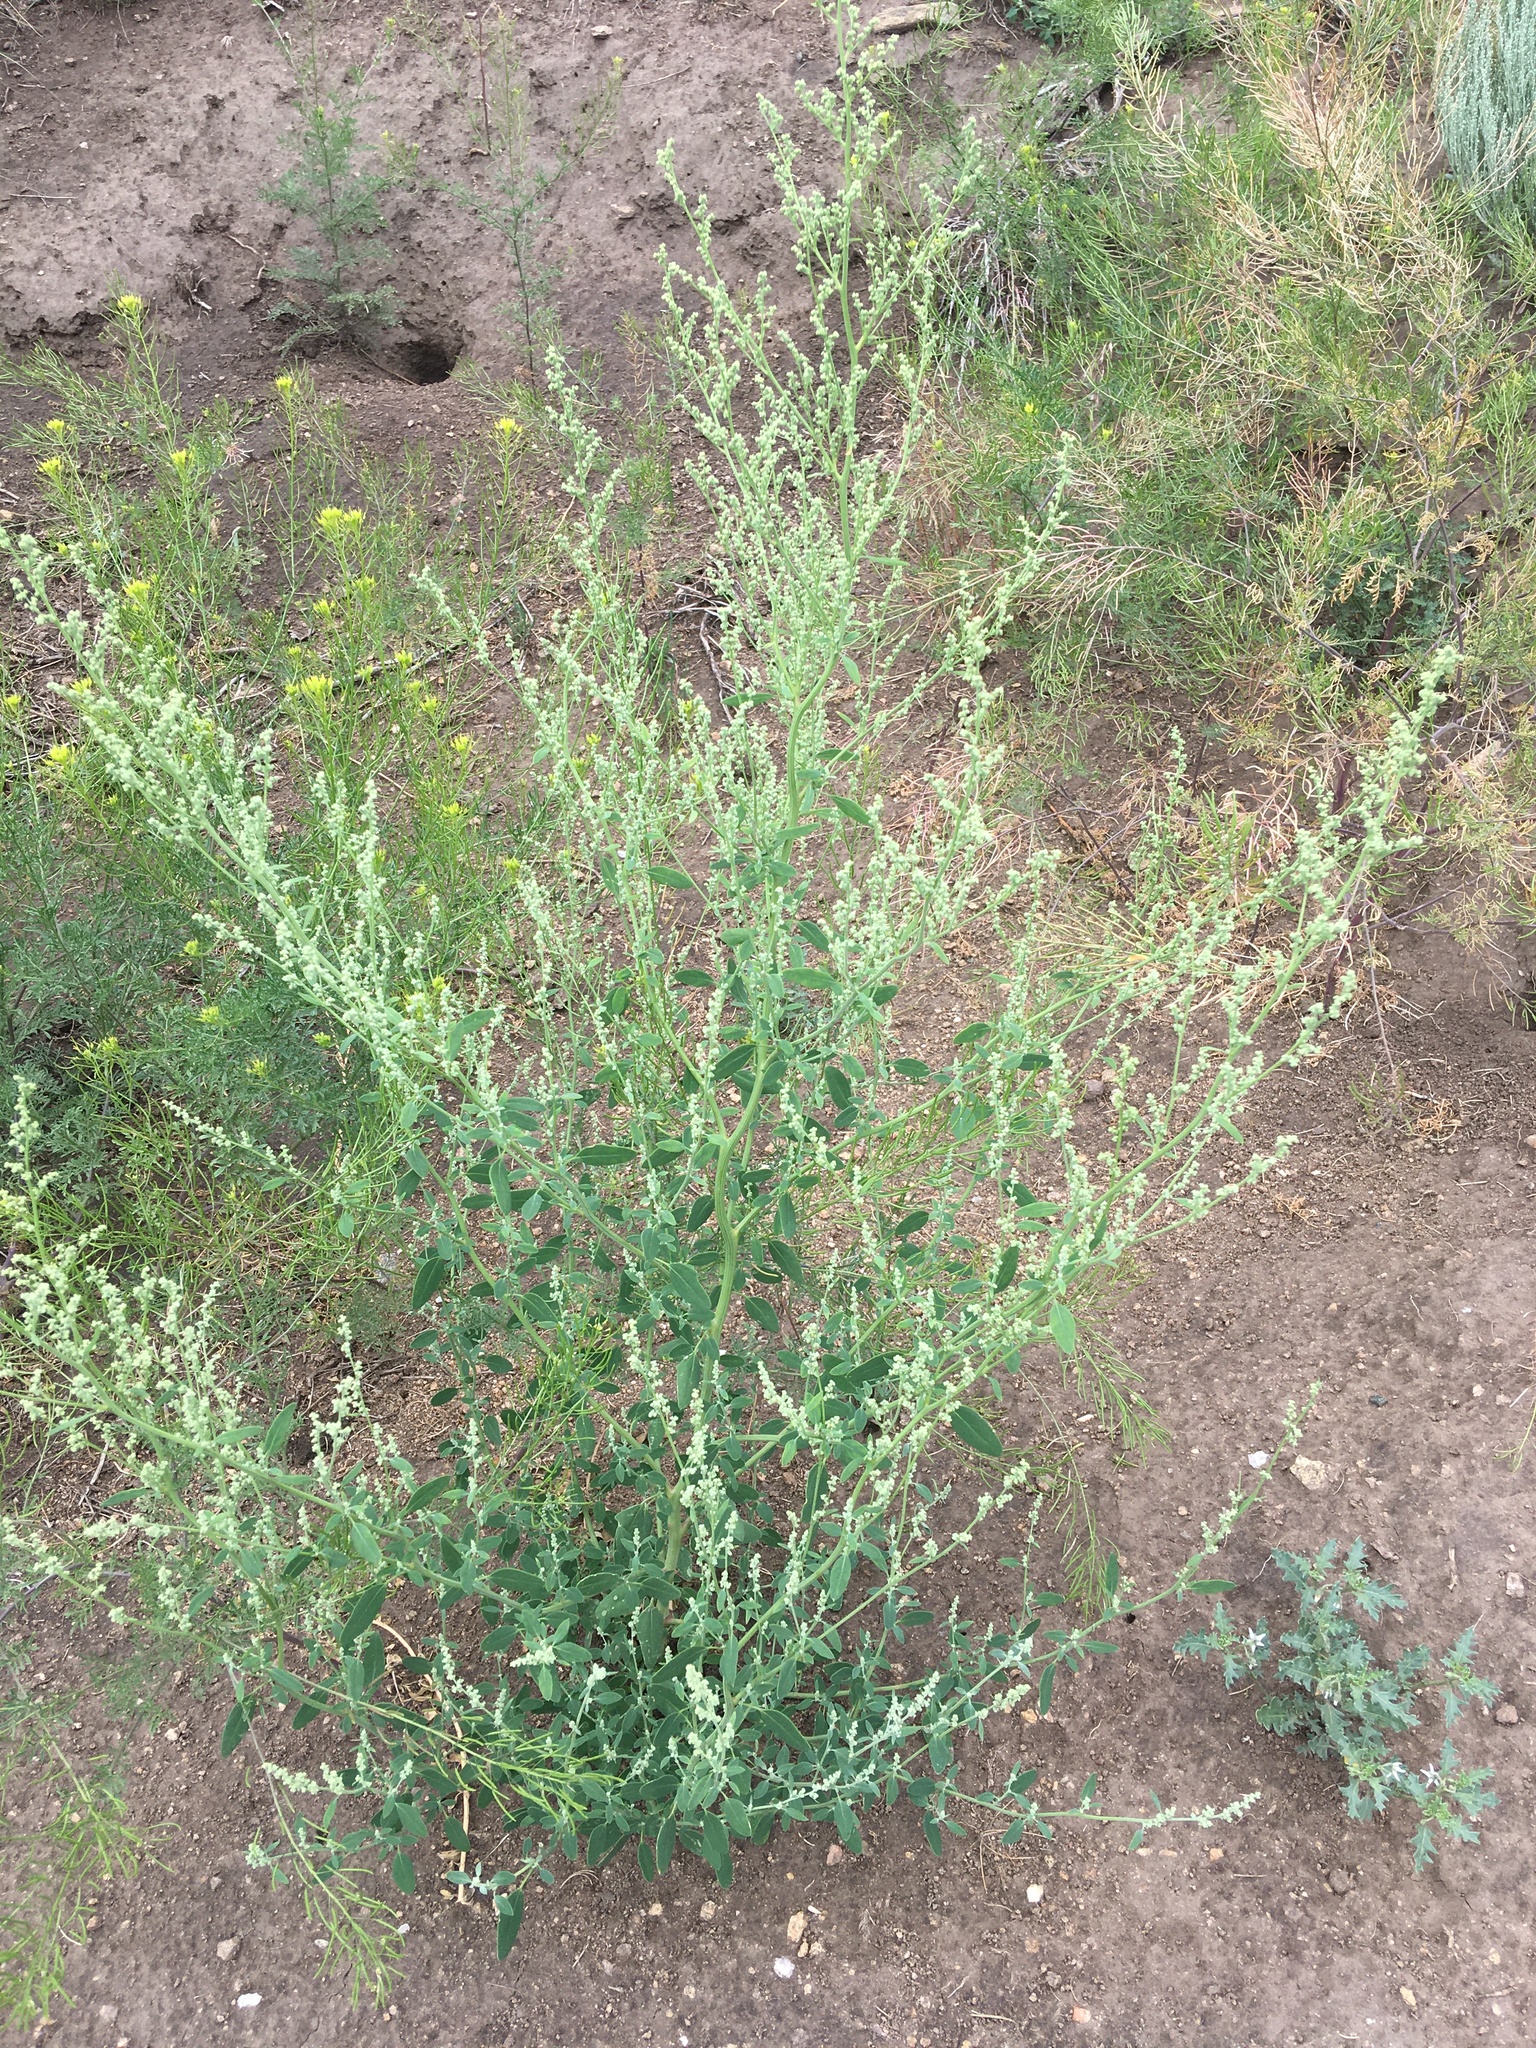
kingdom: Plantae
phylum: Tracheophyta
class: Magnoliopsida
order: Caryophyllales
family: Amaranthaceae
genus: Chenopodium
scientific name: Chenopodium album
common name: Fat-hen
